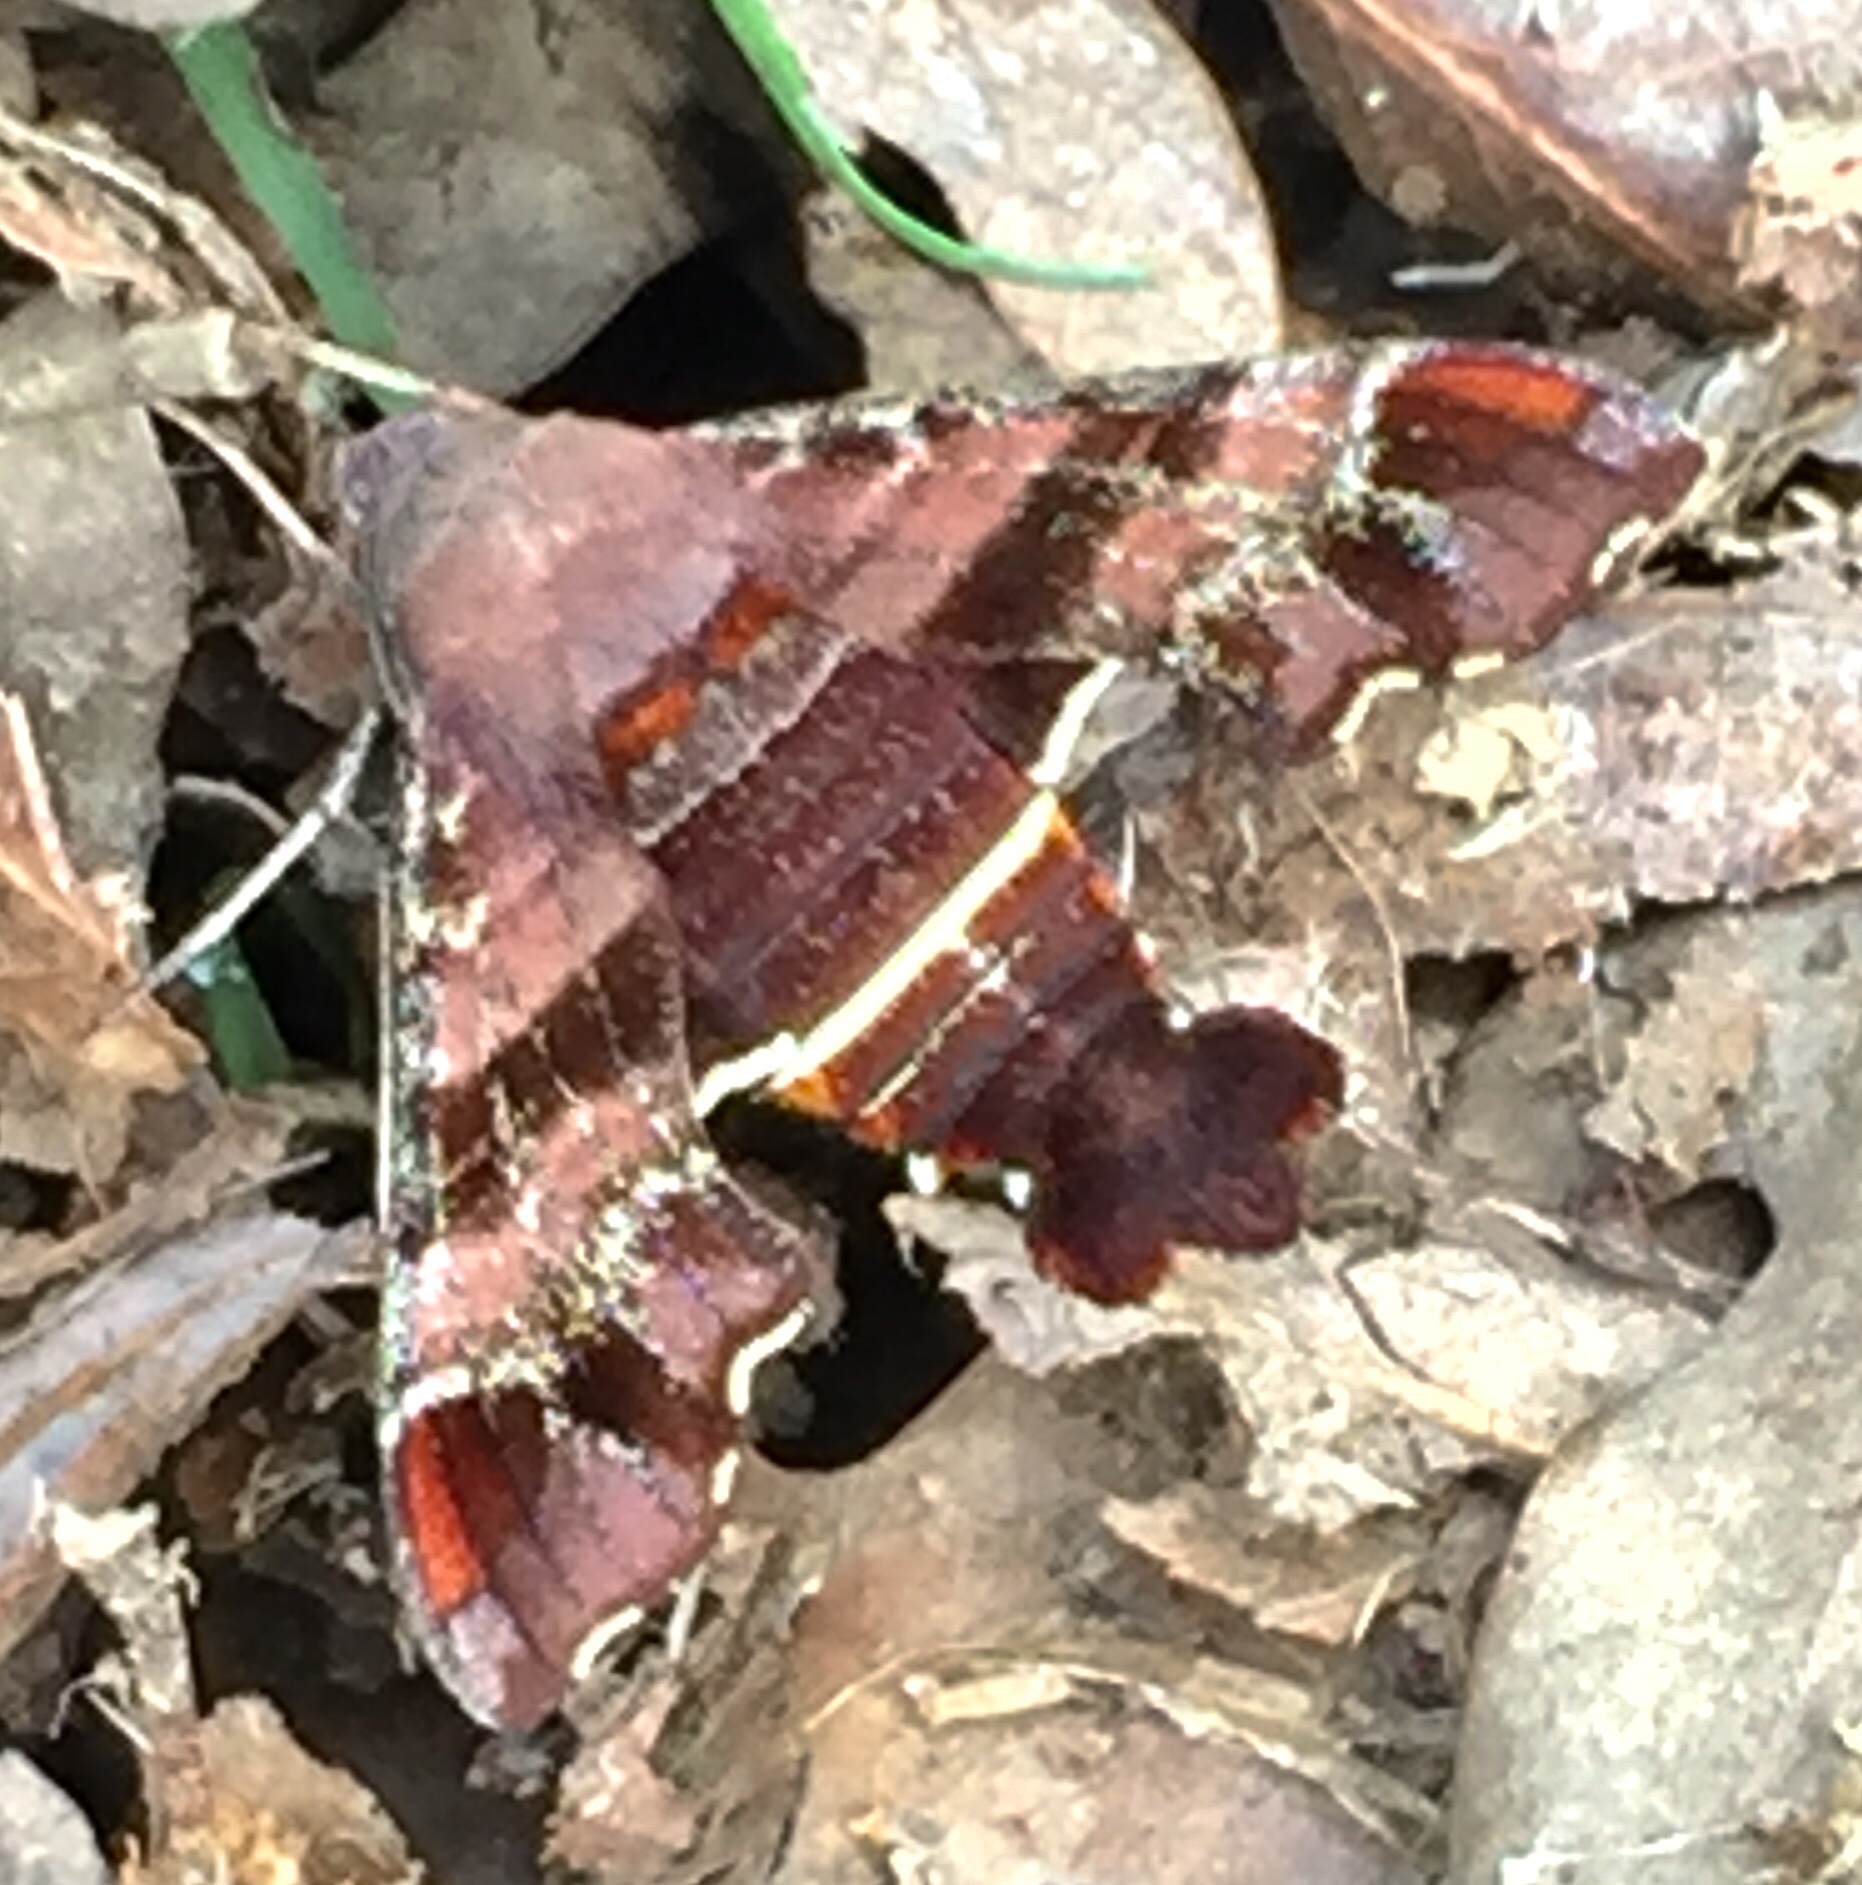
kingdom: Animalia
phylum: Arthropoda
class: Insecta
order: Lepidoptera
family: Sphingidae
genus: Amphion
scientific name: Amphion floridensis
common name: Nessus sphinx
